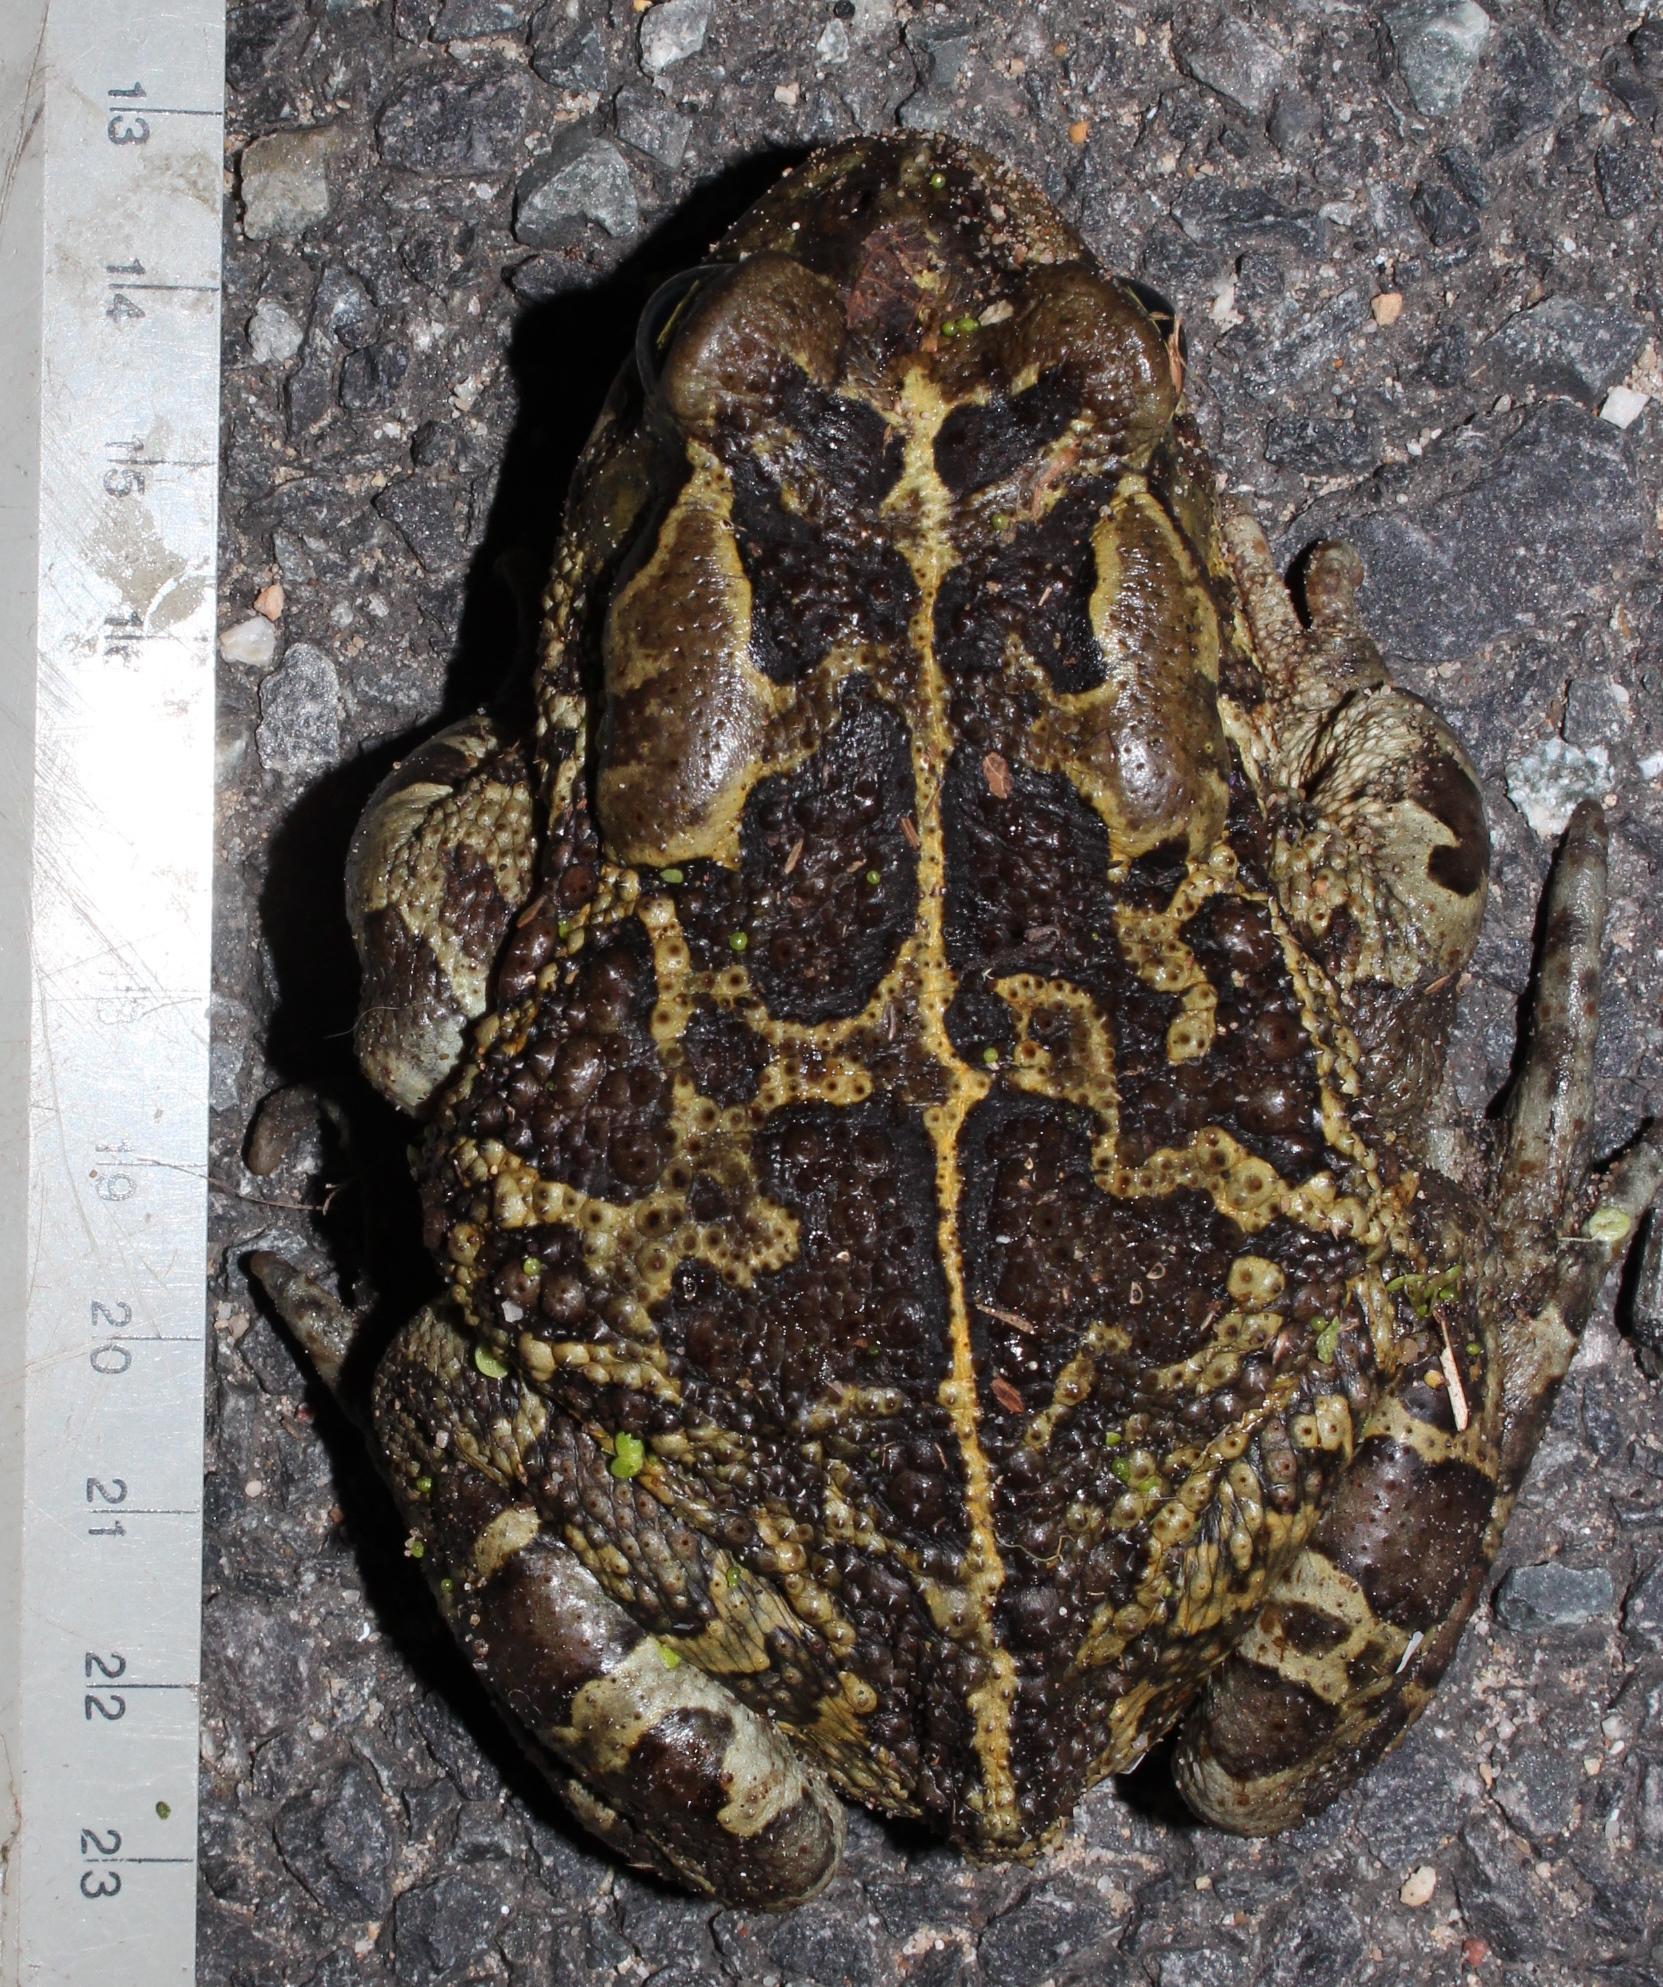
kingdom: Animalia
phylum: Chordata
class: Amphibia
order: Anura
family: Bufonidae
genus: Sclerophrys
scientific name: Sclerophrys pantherina
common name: Panther toad
